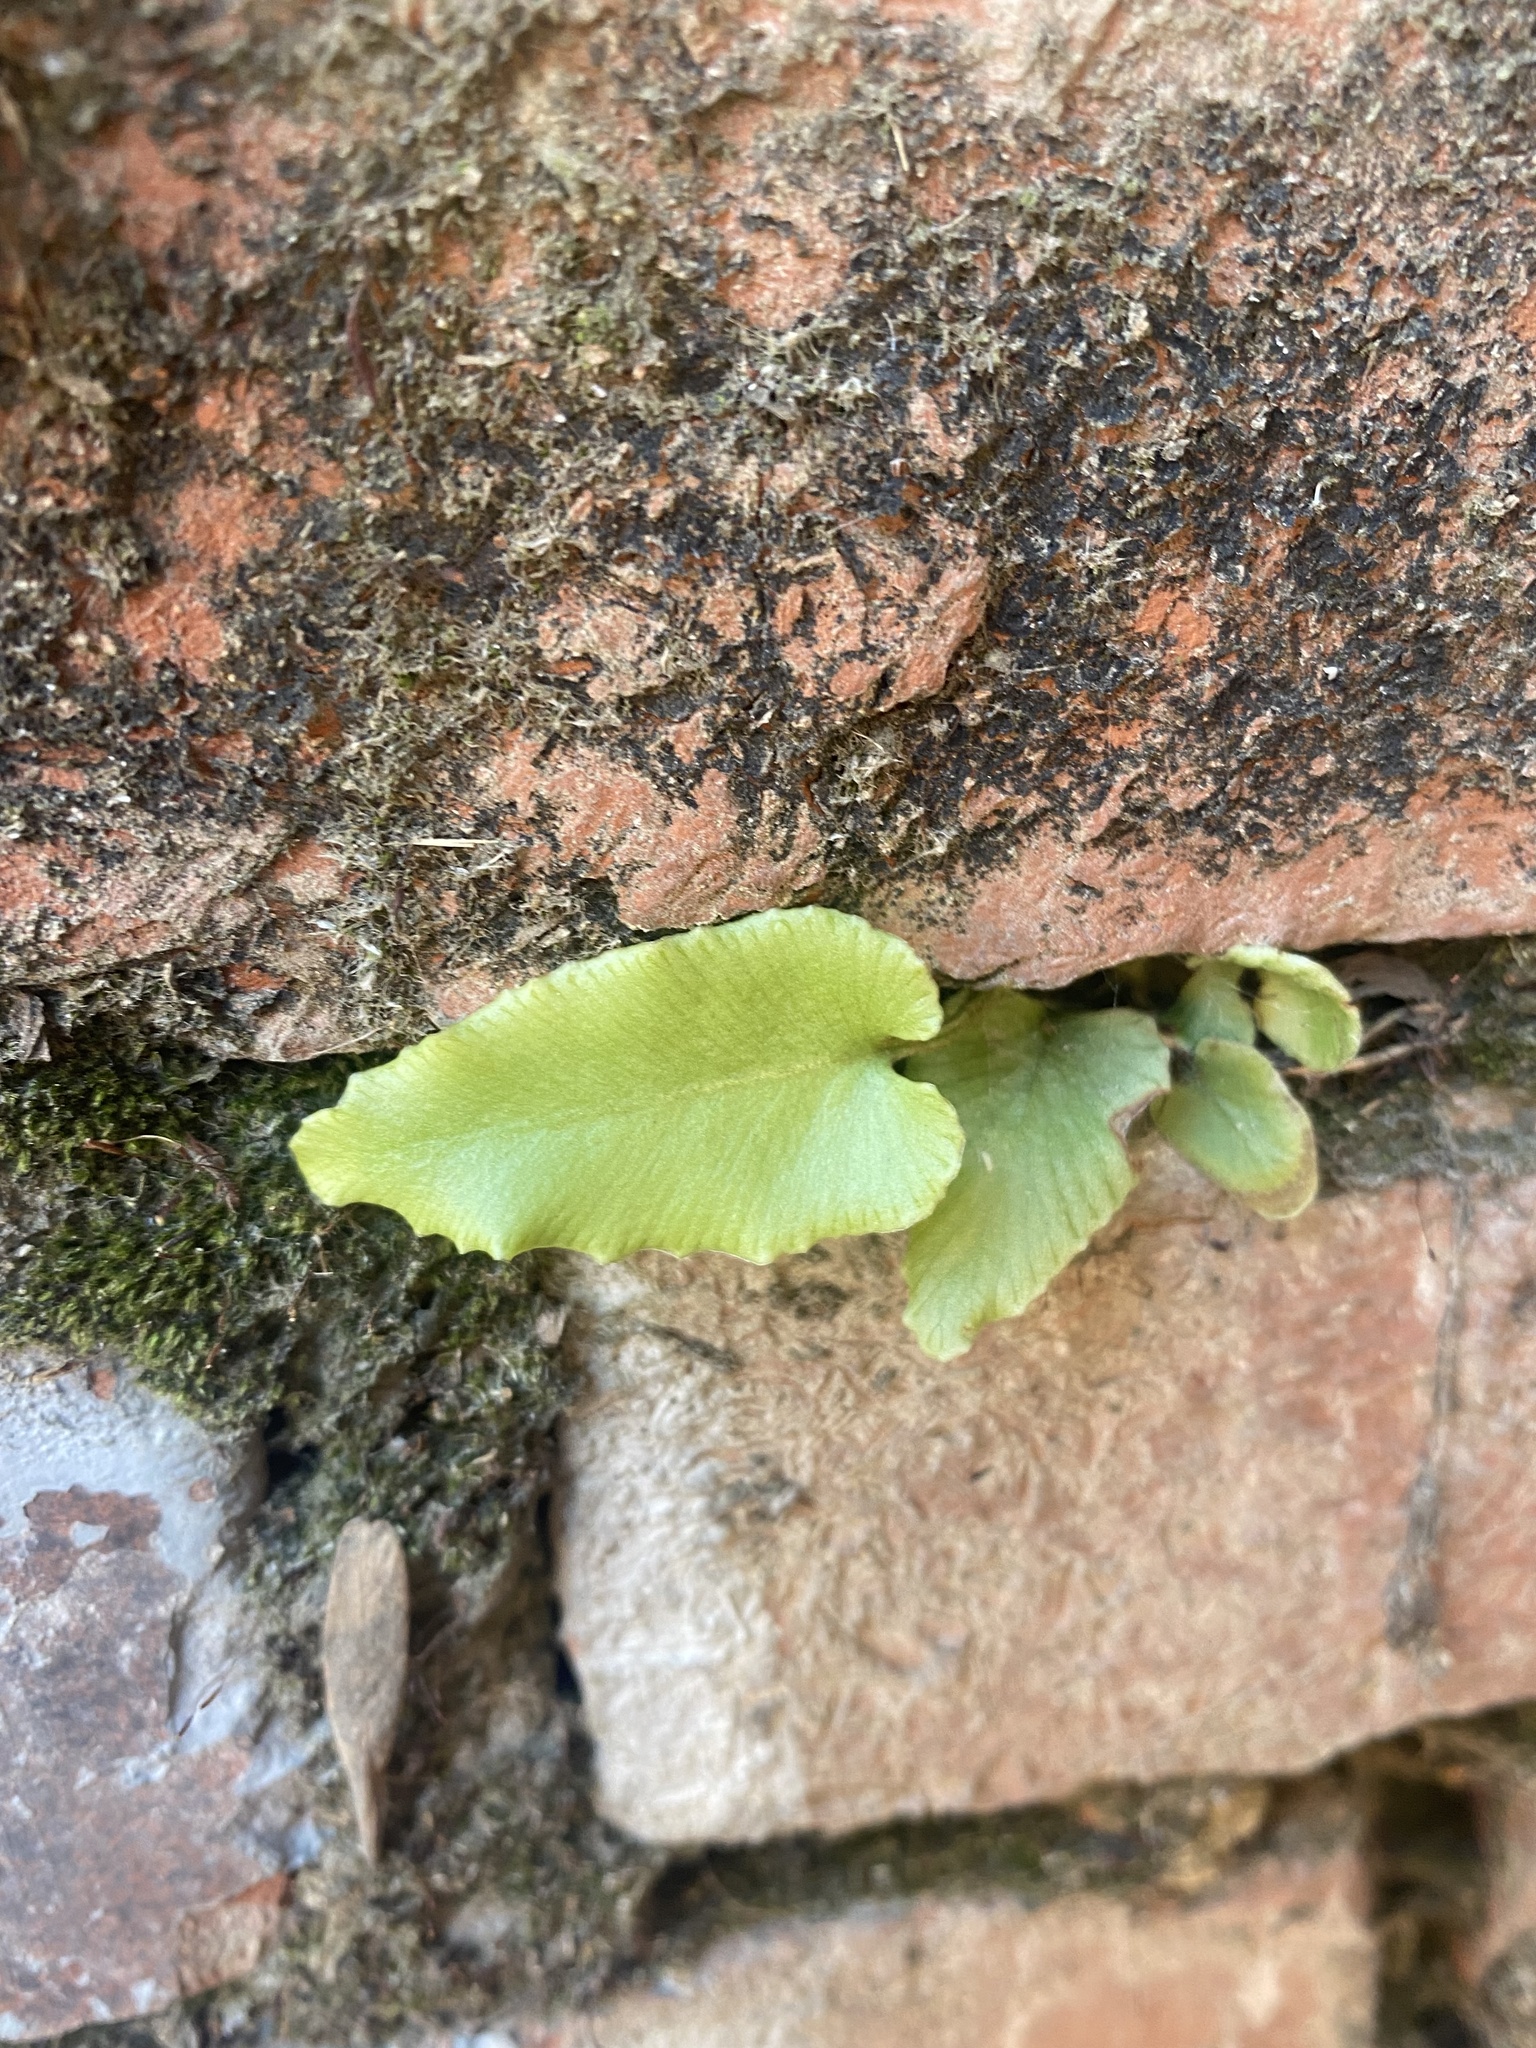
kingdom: Plantae
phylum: Tracheophyta
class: Polypodiopsida
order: Polypodiales
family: Aspleniaceae
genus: Asplenium
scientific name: Asplenium scolopendrium
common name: Hart's-tongue fern
